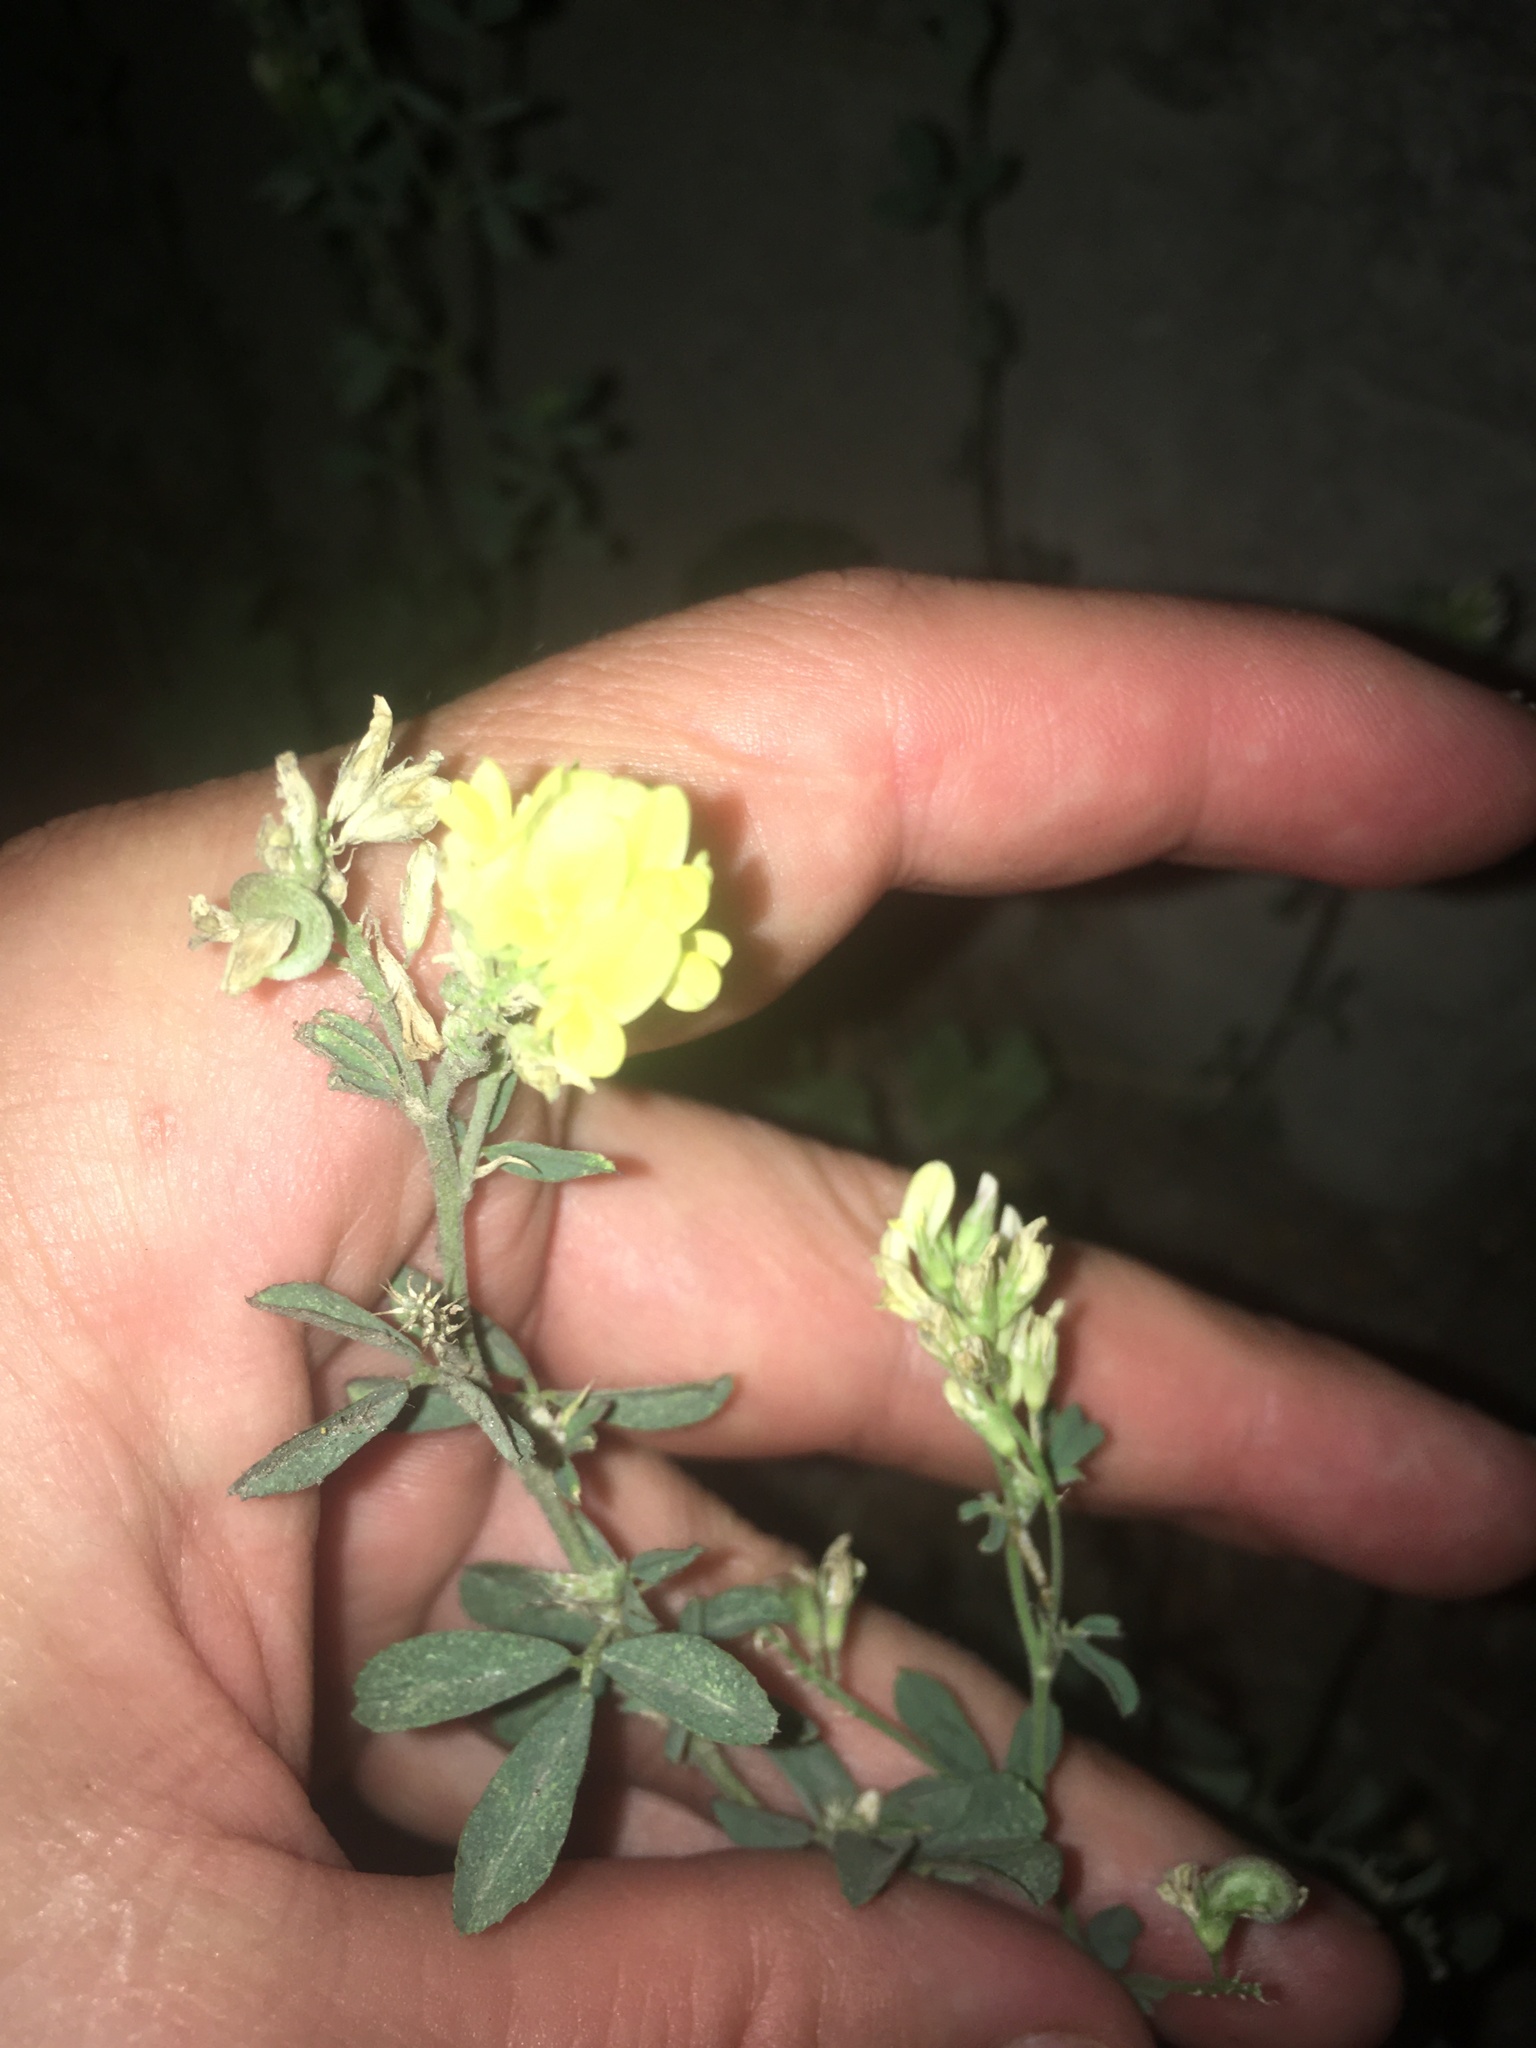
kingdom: Plantae
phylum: Tracheophyta
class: Magnoliopsida
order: Fabales
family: Fabaceae
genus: Medicago
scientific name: Medicago falcata
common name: Sickle medick
